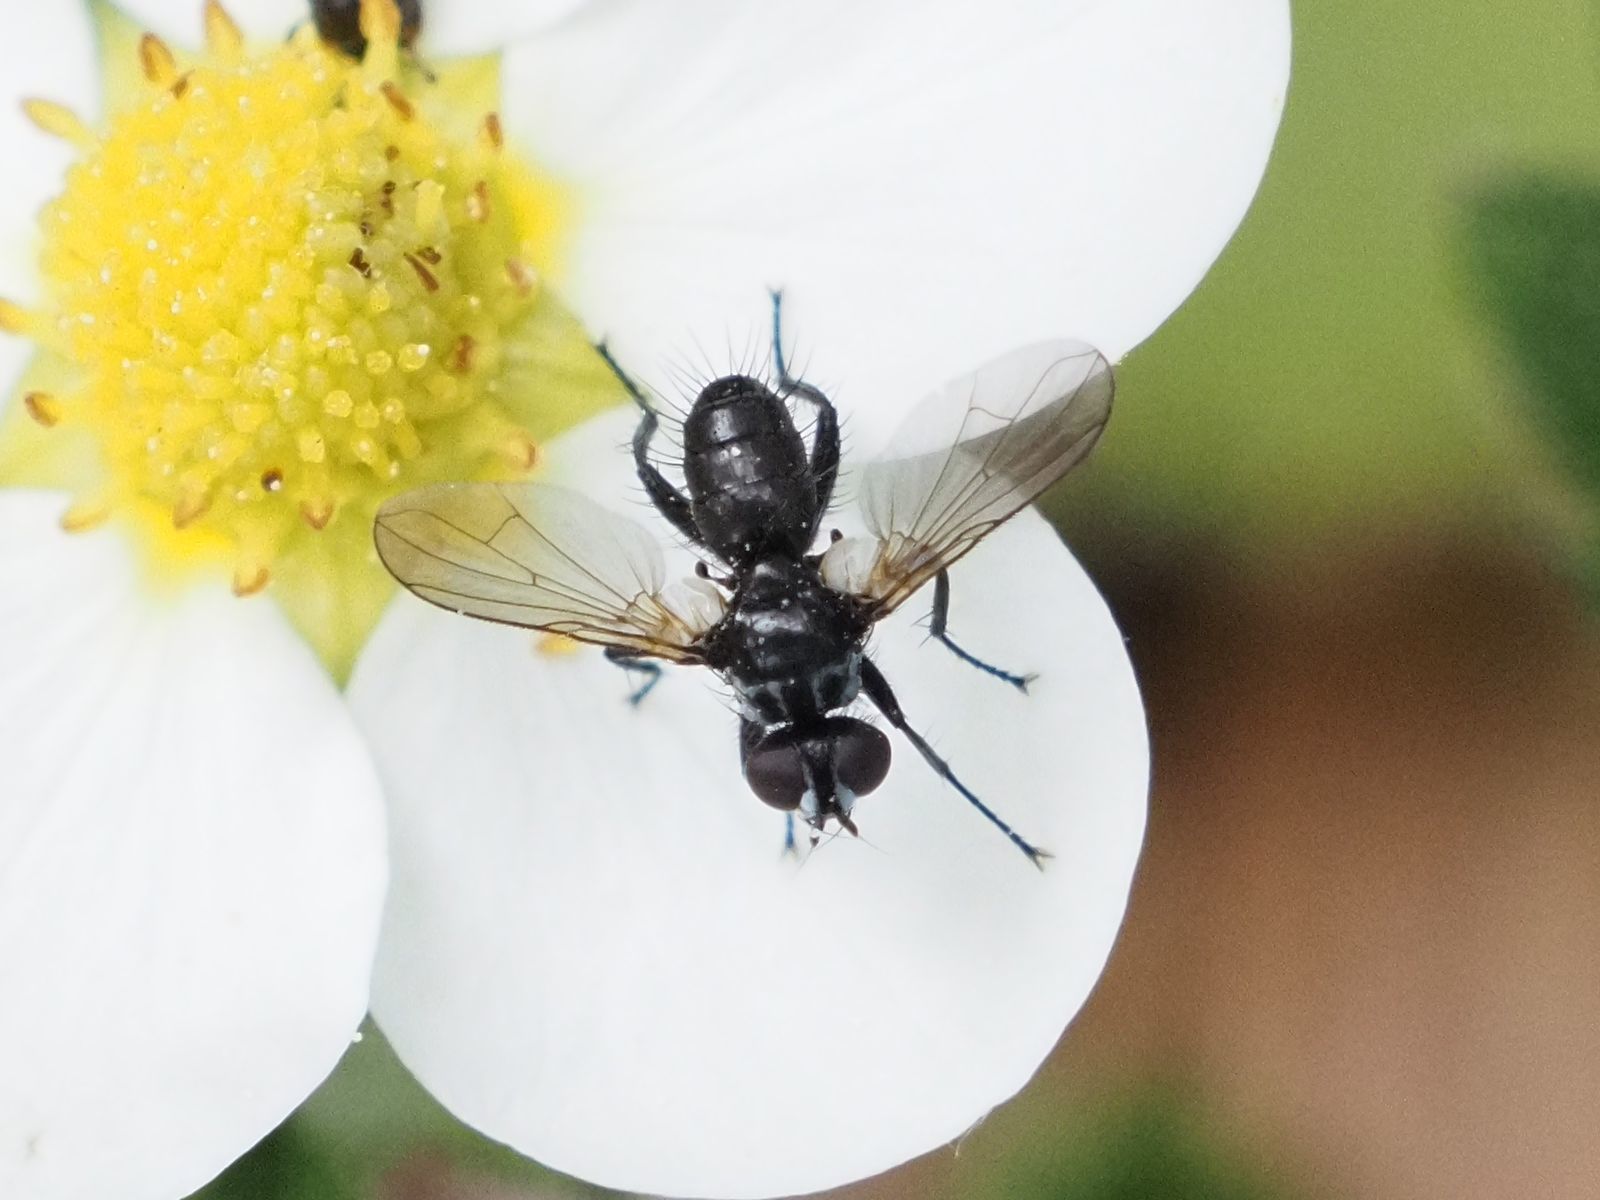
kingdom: Animalia
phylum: Arthropoda
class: Insecta
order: Diptera
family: Tachinidae
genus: Phania
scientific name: Phania funesta
